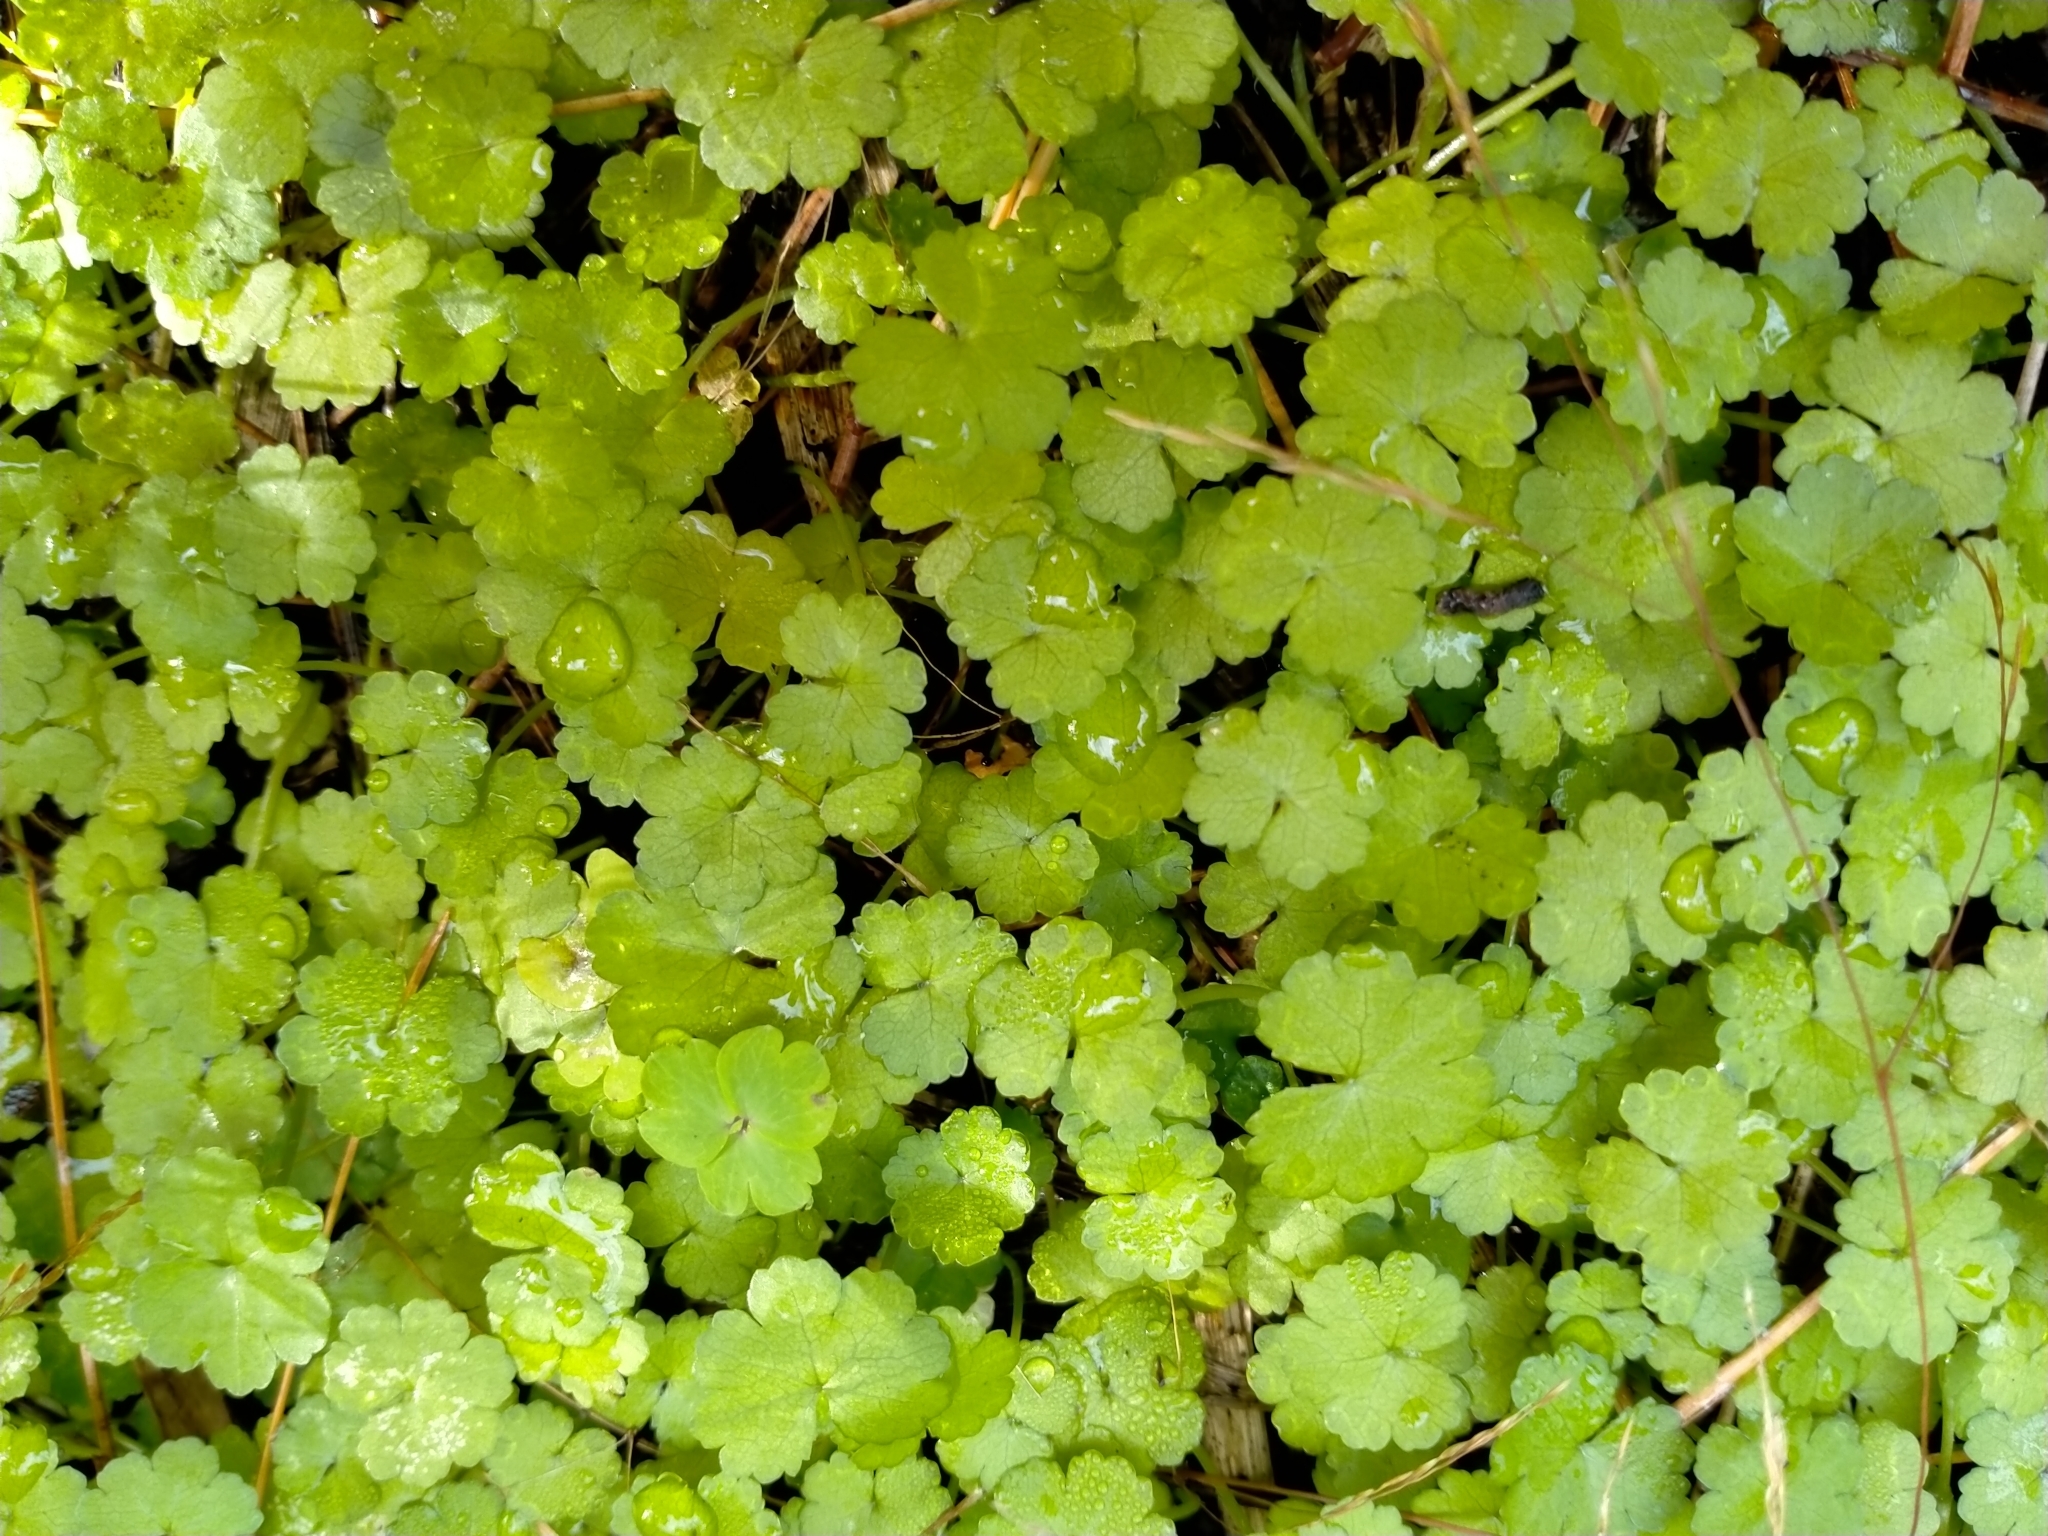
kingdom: Plantae
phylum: Tracheophyta
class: Magnoliopsida
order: Apiales
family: Araliaceae
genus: Hydrocotyle
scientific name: Hydrocotyle heteromeria
